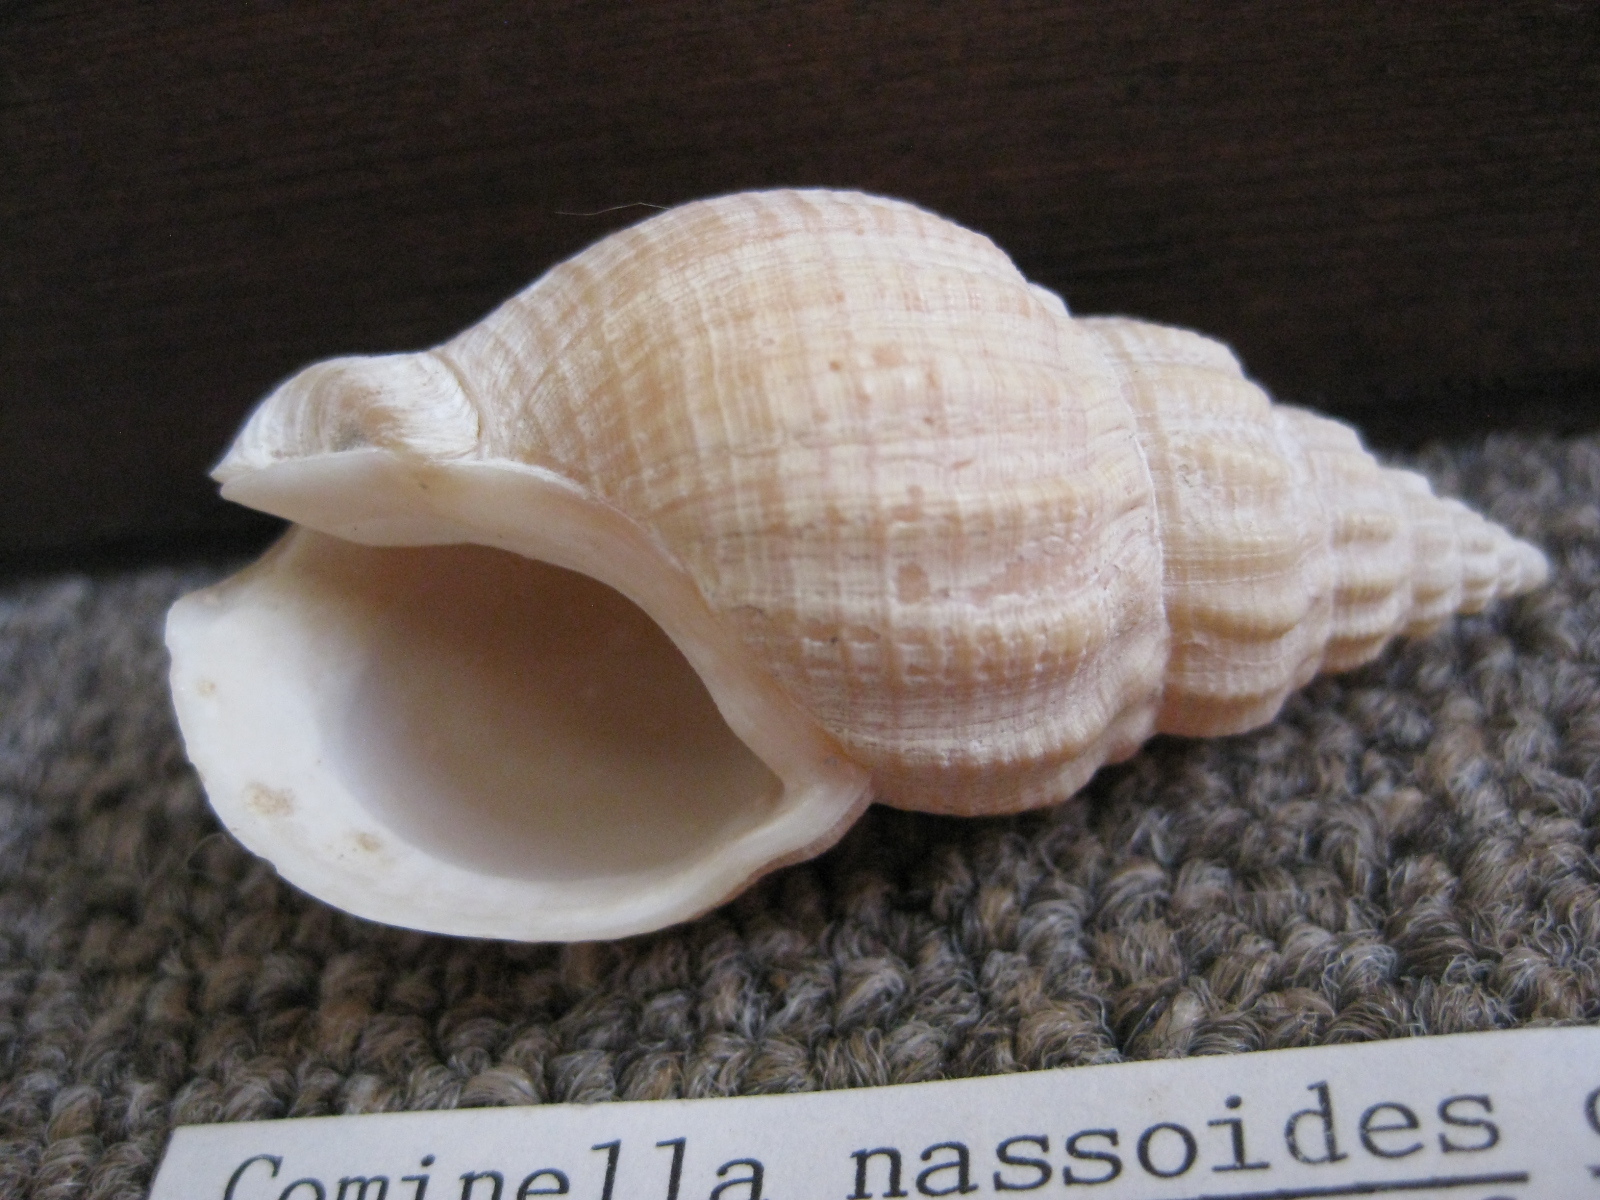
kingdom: Animalia
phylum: Mollusca
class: Gastropoda
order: Neogastropoda
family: Cominellidae
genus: Cominella
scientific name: Cominella nassoides
